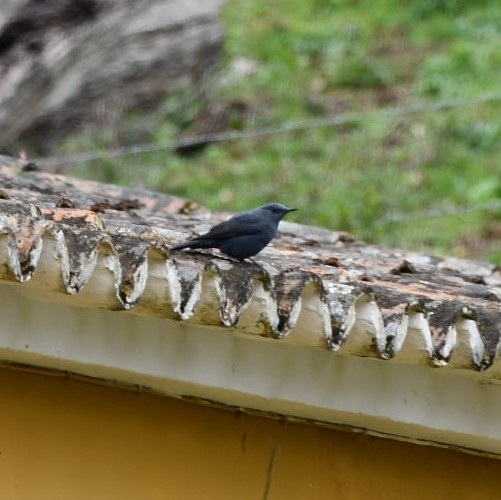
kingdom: Animalia
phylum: Chordata
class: Aves
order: Passeriformes
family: Muscicapidae
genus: Monticola
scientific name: Monticola solitarius
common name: Blue rock thrush
